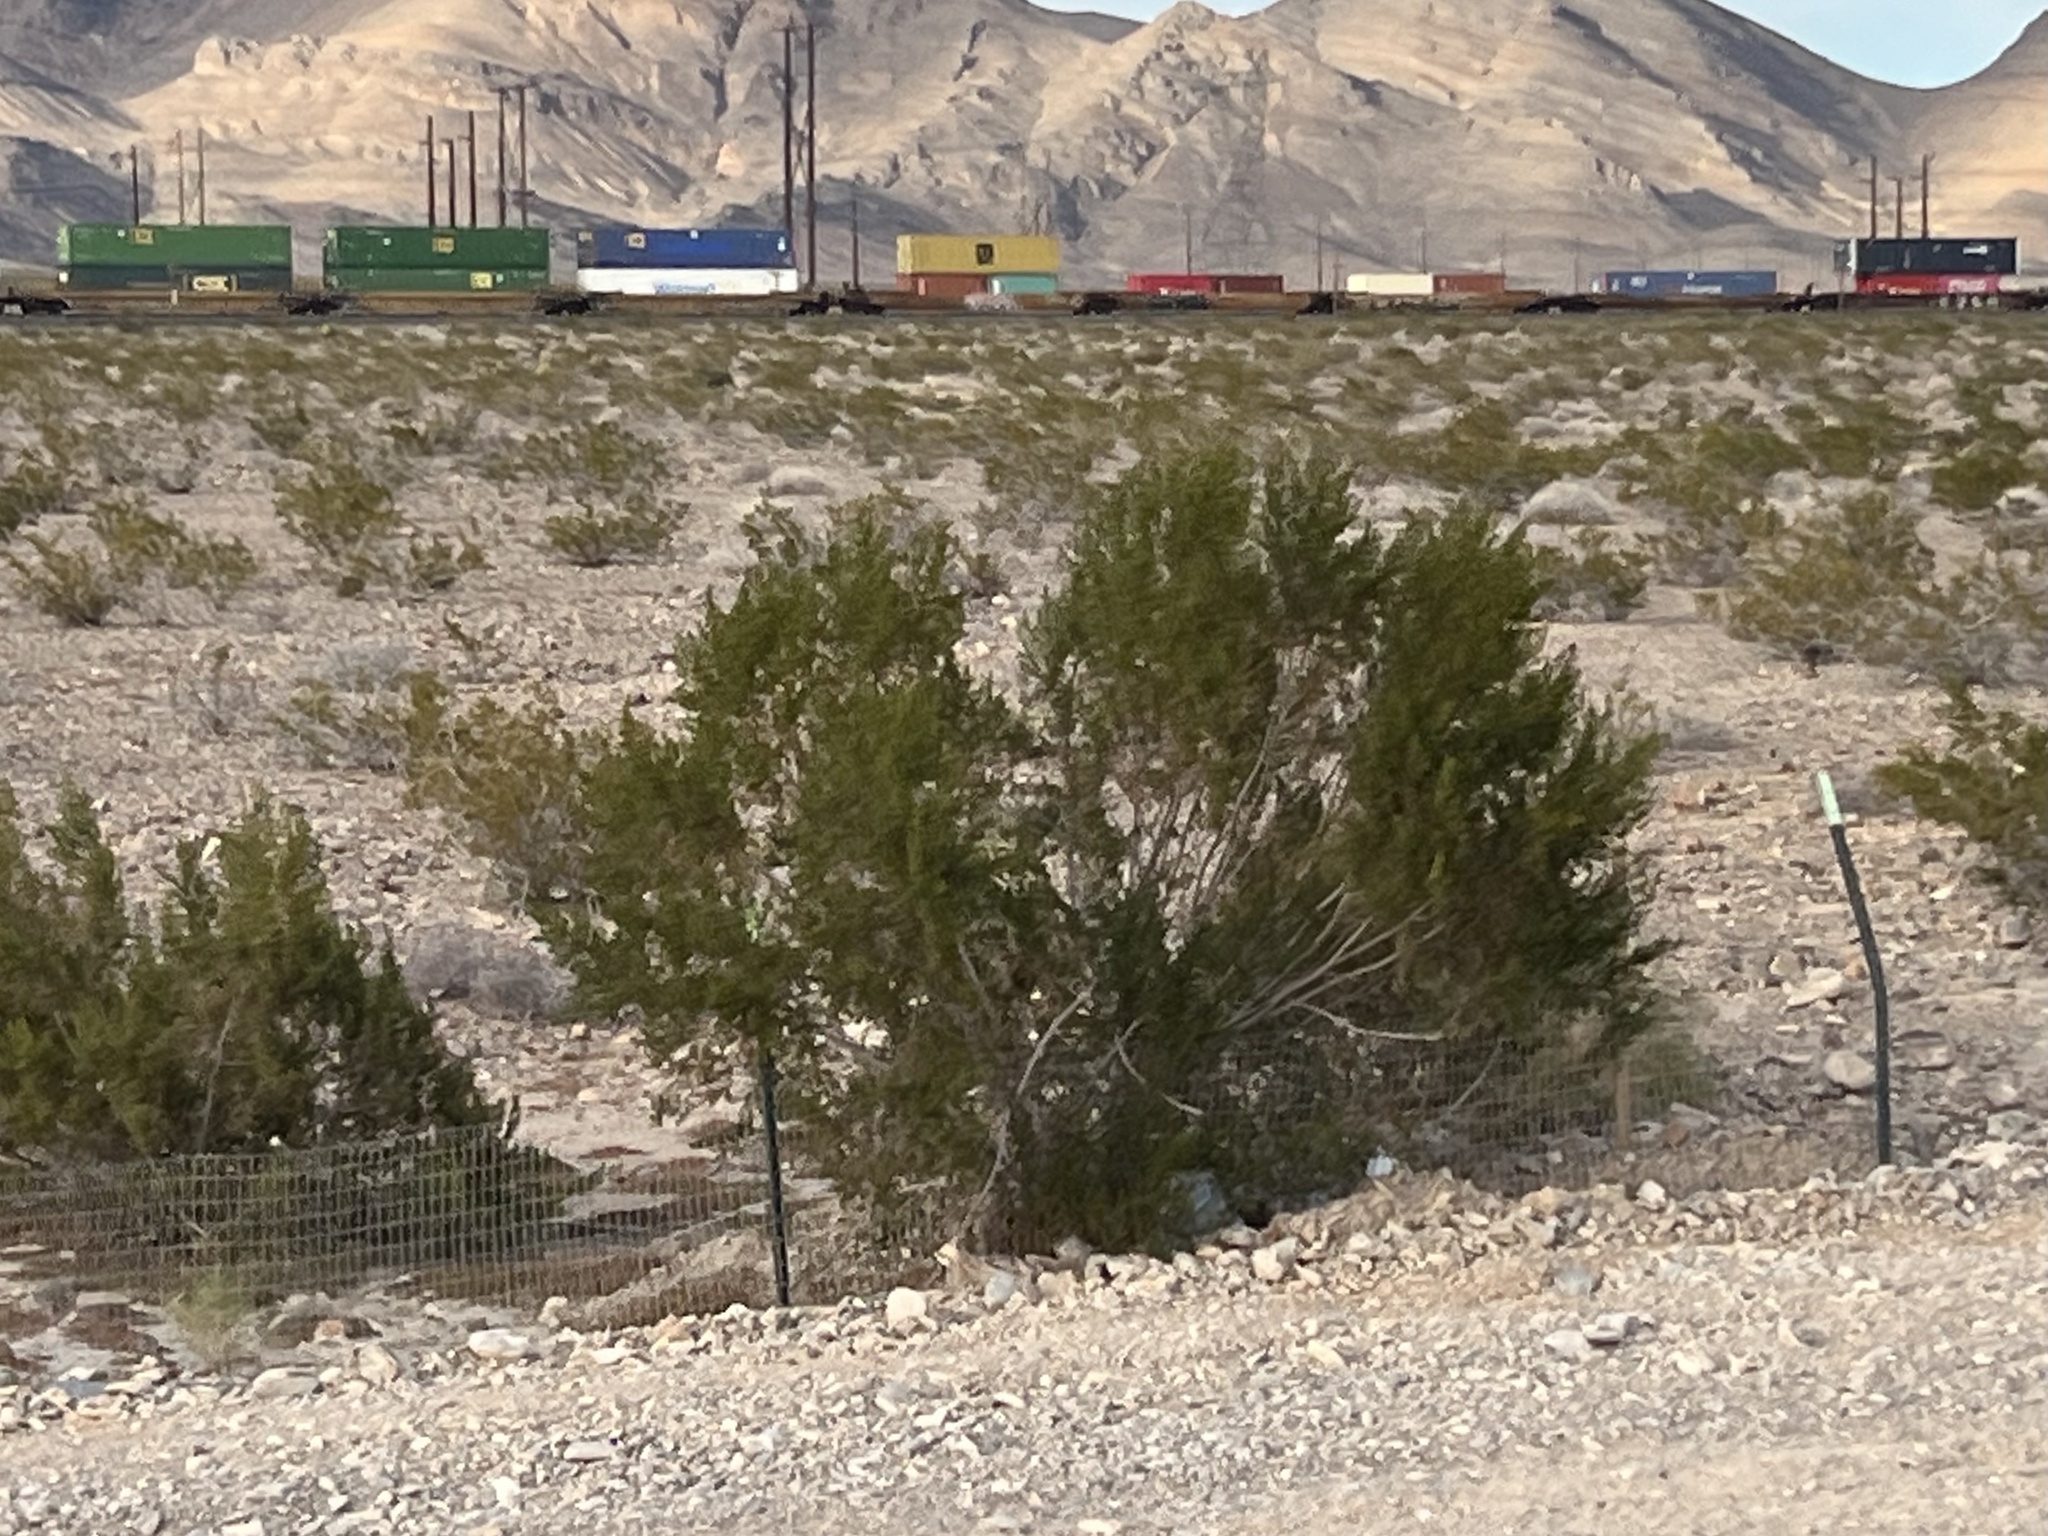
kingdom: Plantae
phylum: Tracheophyta
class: Magnoliopsida
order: Zygophyllales
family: Zygophyllaceae
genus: Larrea
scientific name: Larrea tridentata
